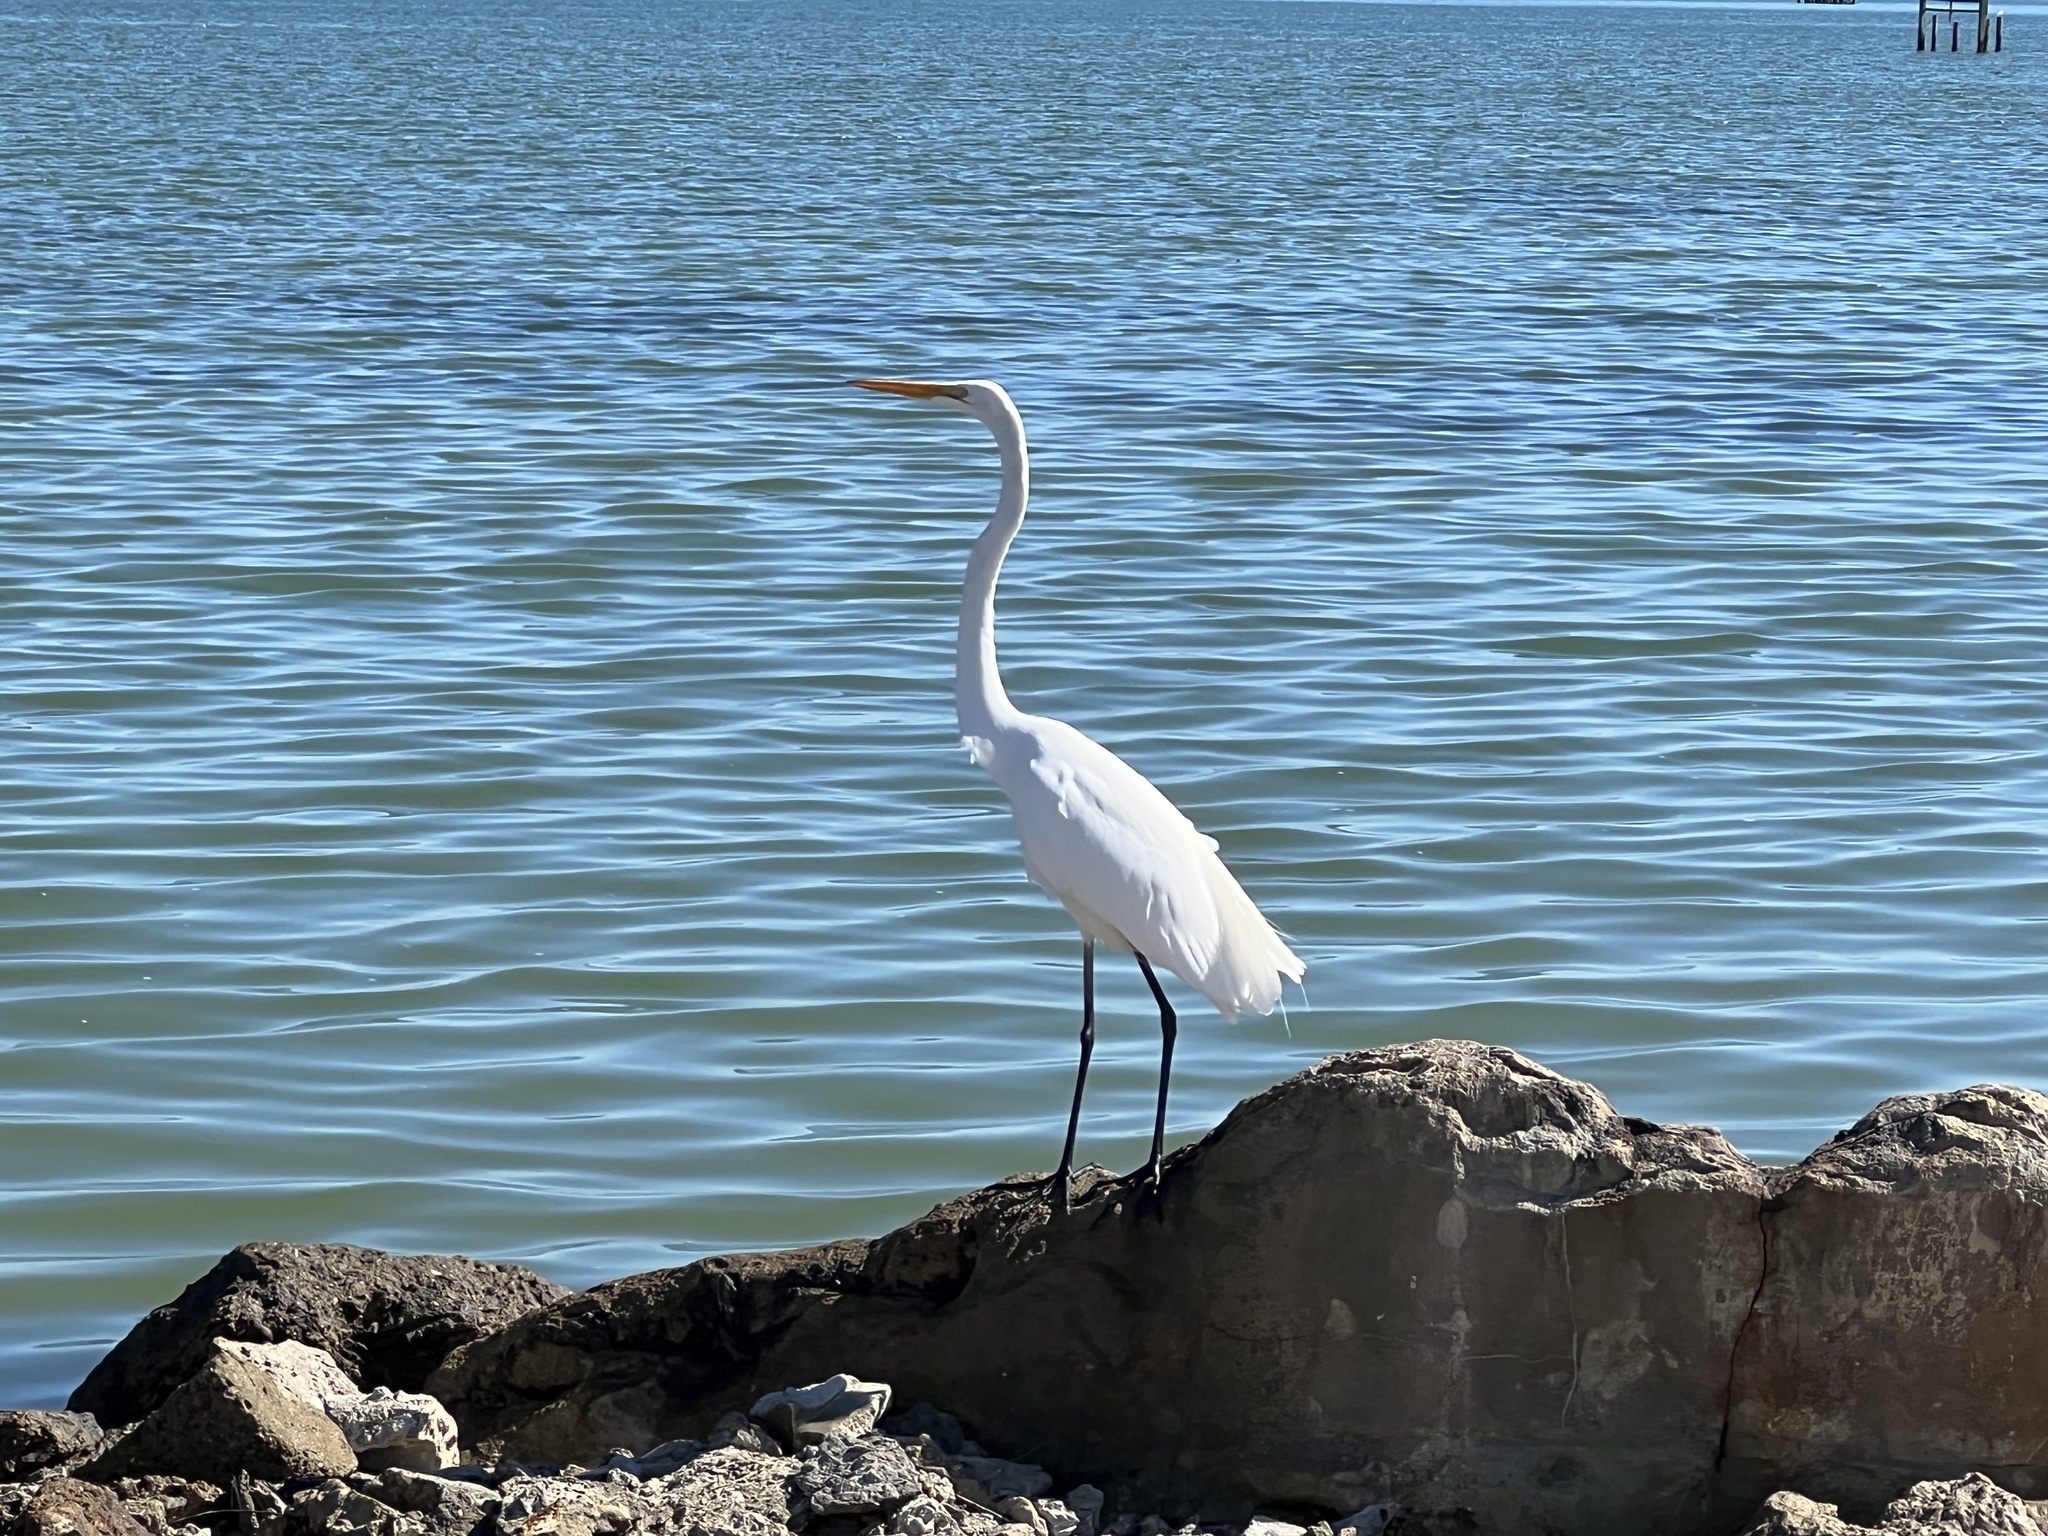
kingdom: Animalia
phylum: Chordata
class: Aves
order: Pelecaniformes
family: Ardeidae
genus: Ardea
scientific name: Ardea alba
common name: Great egret
